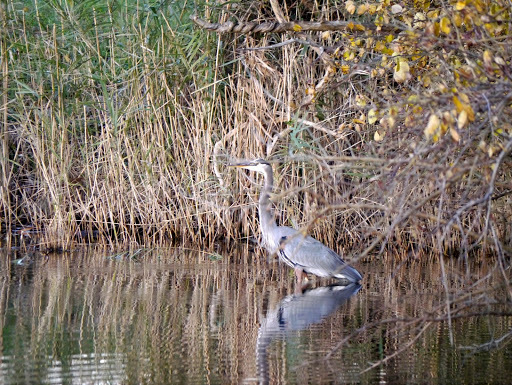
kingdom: Animalia
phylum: Chordata
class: Aves
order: Pelecaniformes
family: Ardeidae
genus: Ardea
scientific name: Ardea herodias
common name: Great blue heron
